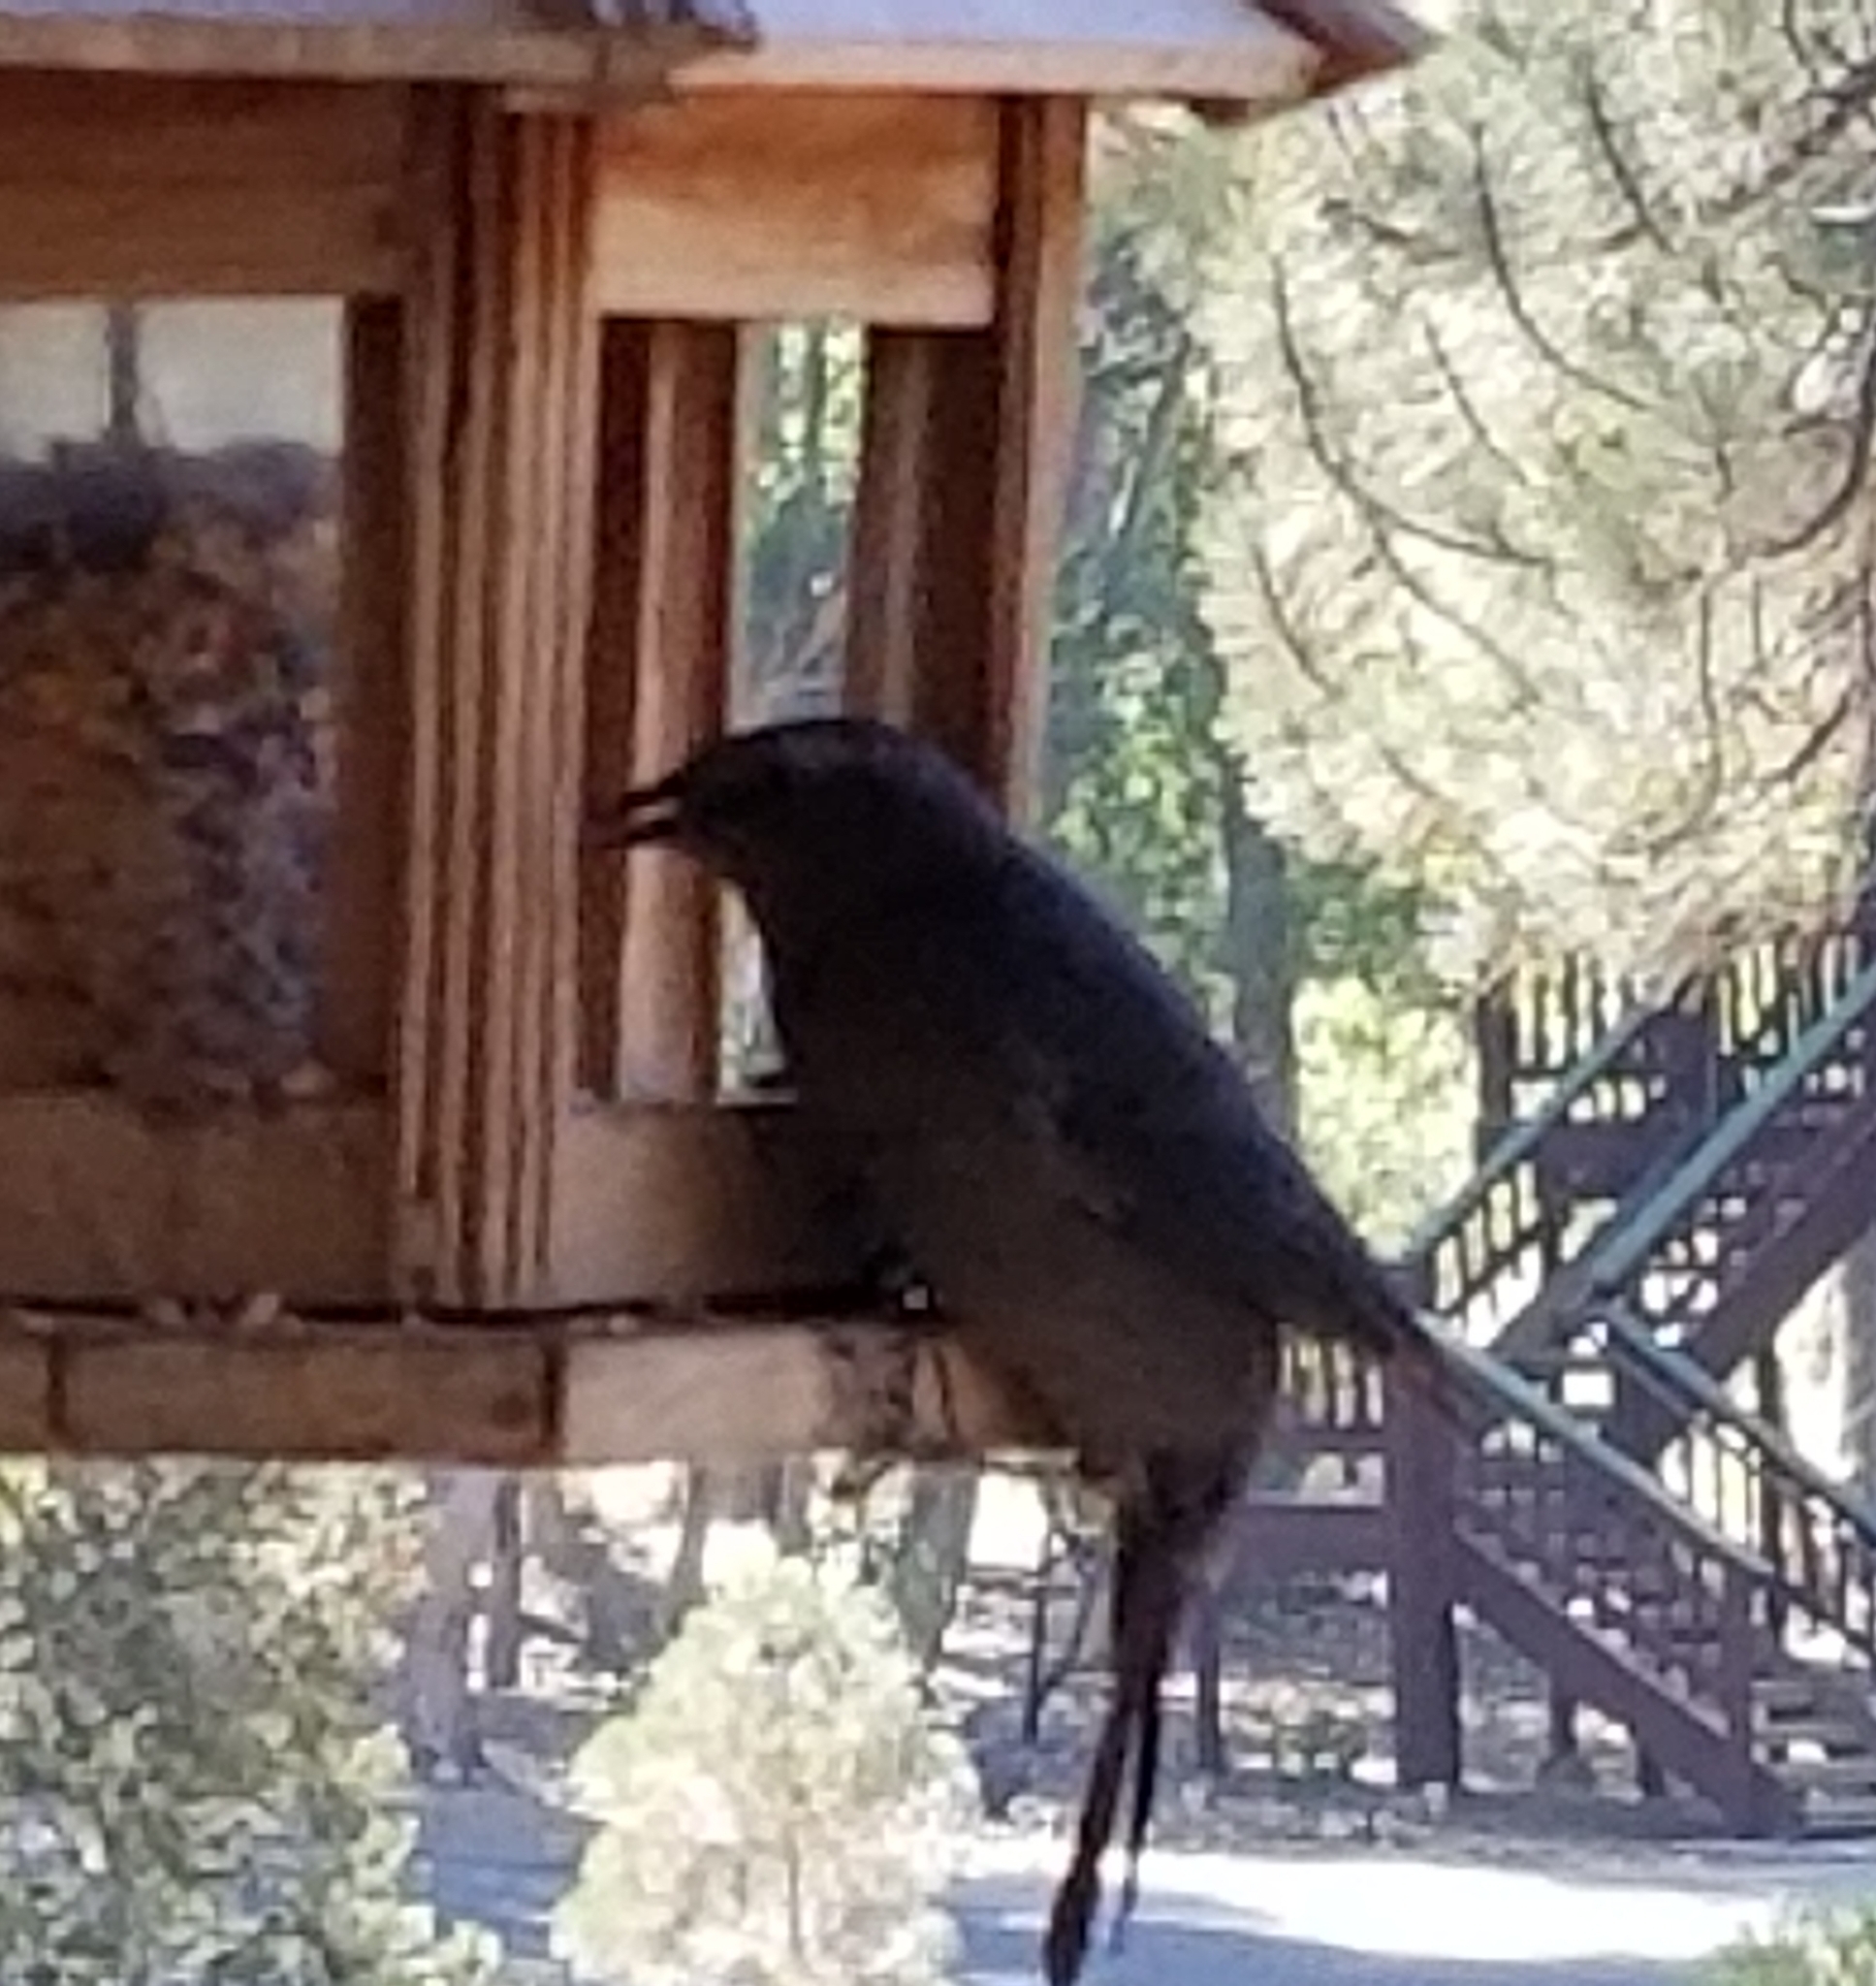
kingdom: Animalia
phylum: Chordata
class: Aves
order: Passeriformes
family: Icteridae
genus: Euphagus
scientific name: Euphagus cyanocephalus
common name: Brewer's blackbird
